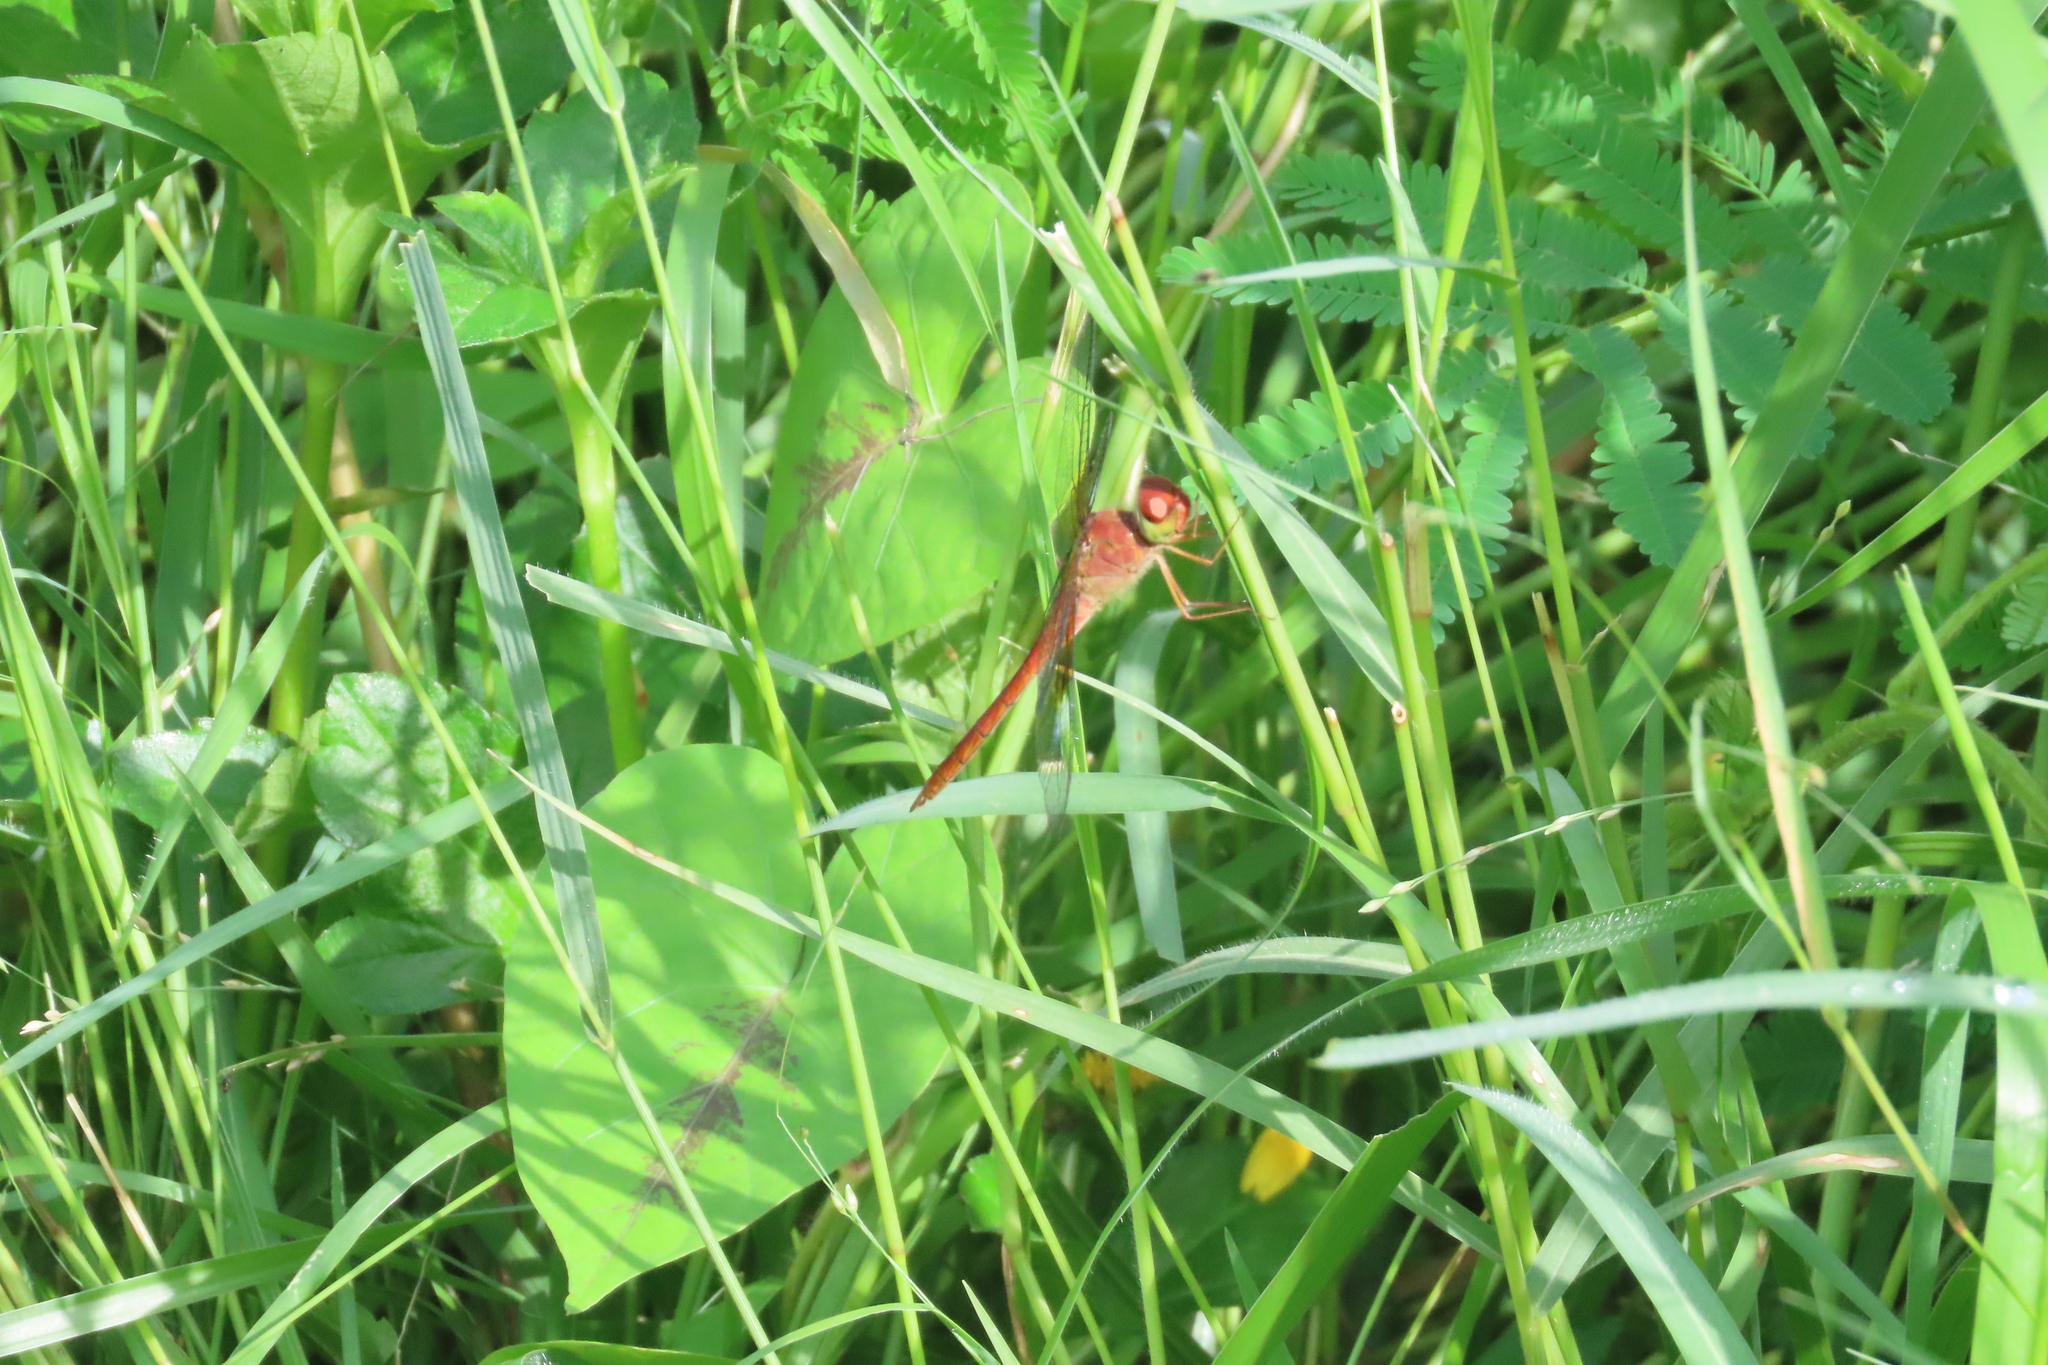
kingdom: Animalia
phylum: Arthropoda
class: Insecta
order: Odonata
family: Libellulidae
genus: Tholymis
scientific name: Tholymis tillarga
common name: Coral-tailed cloud wing
